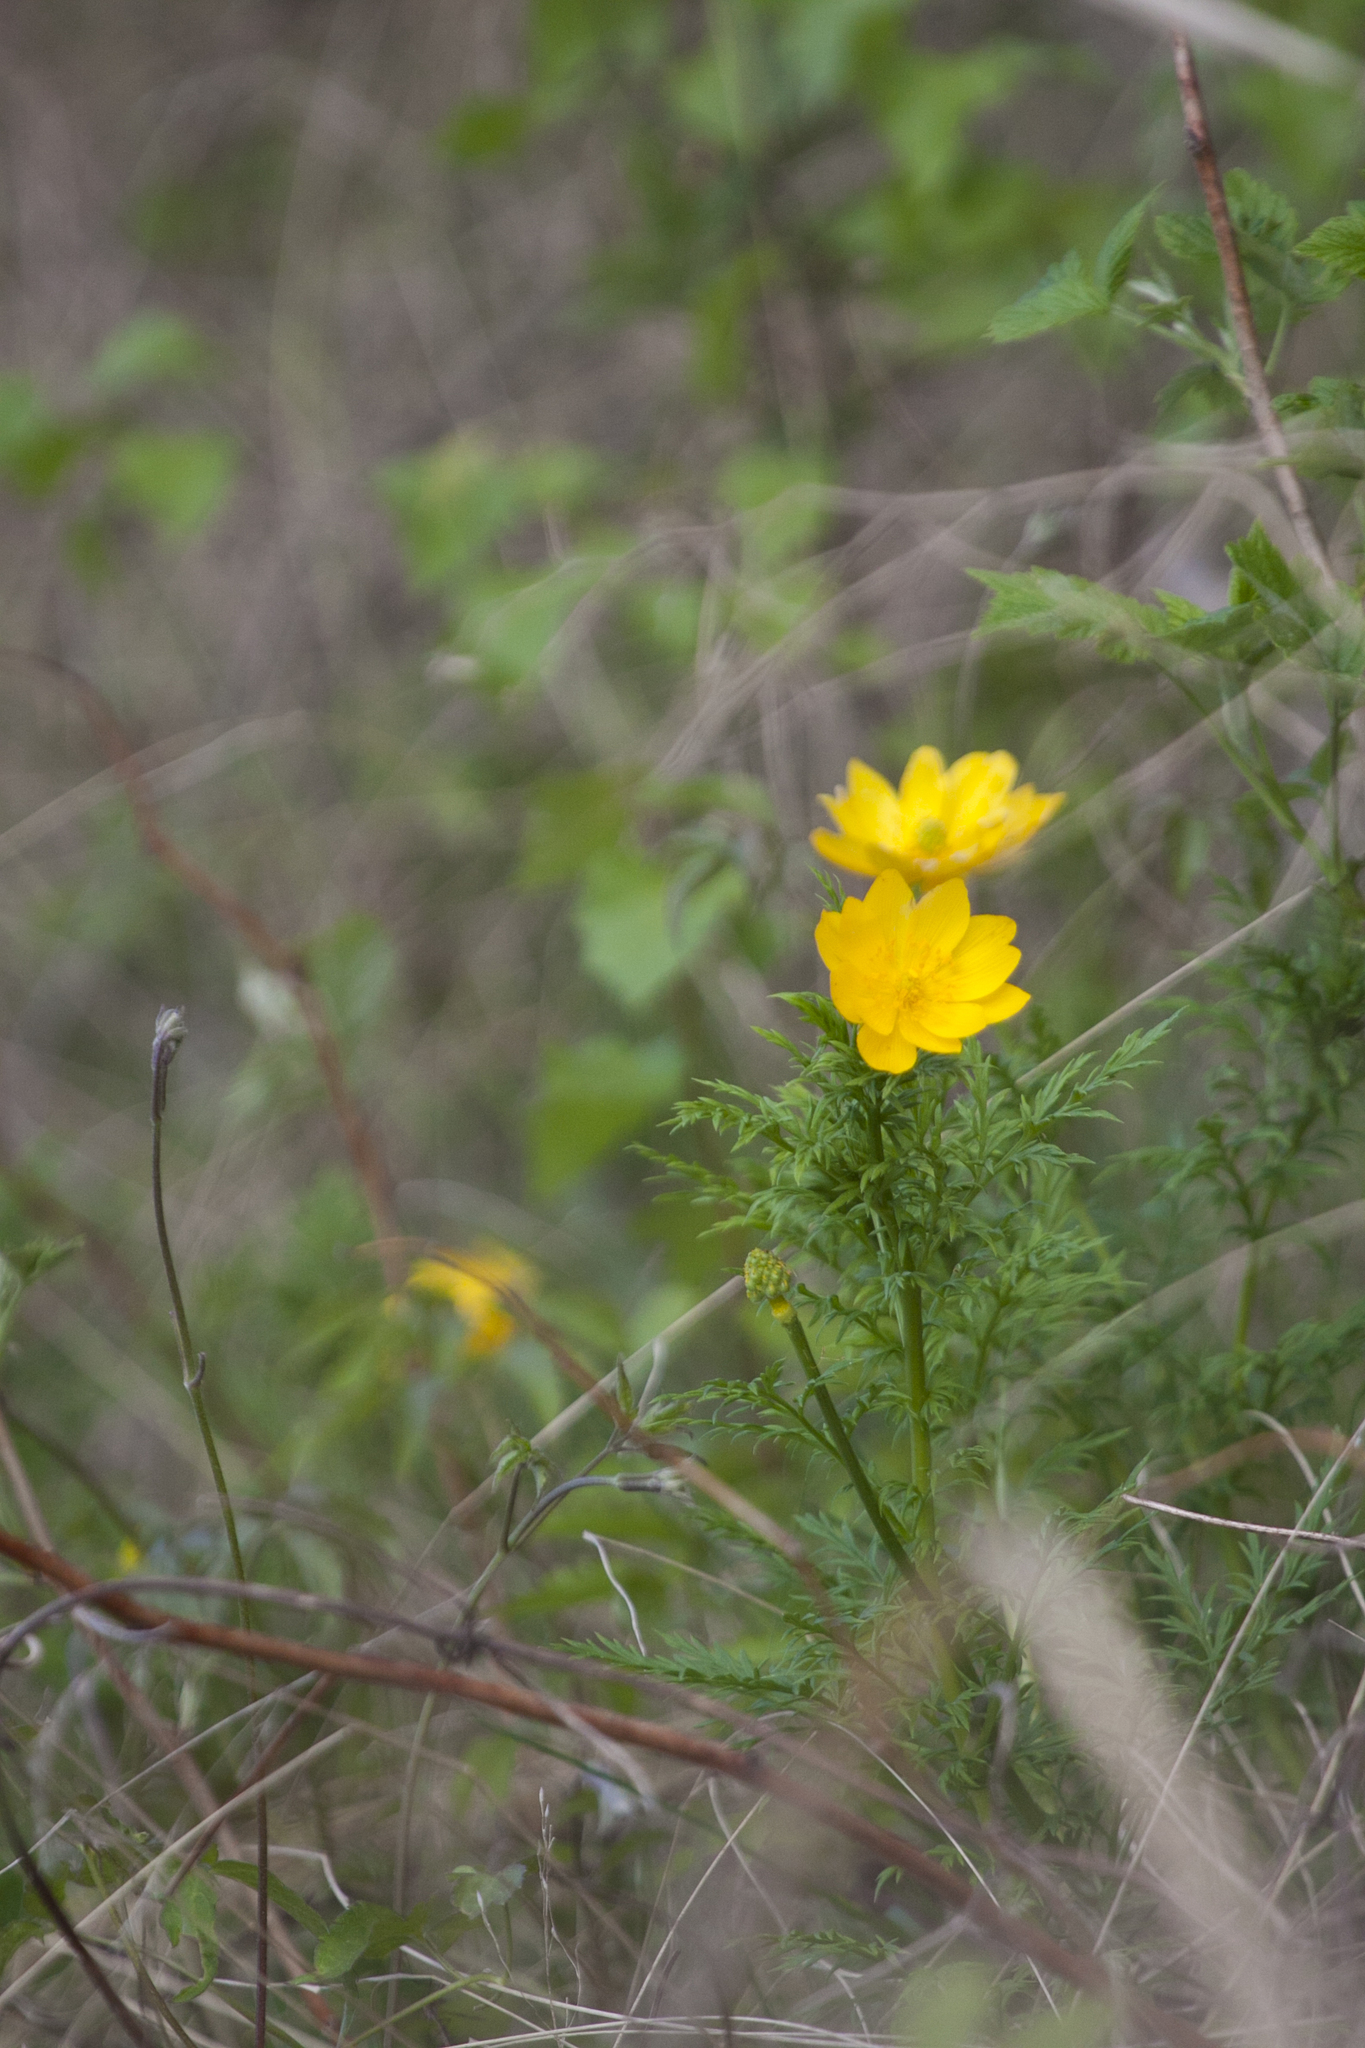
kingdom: Plantae
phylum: Tracheophyta
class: Magnoliopsida
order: Ranunculales
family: Ranunculaceae
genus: Adonis
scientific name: Adonis
